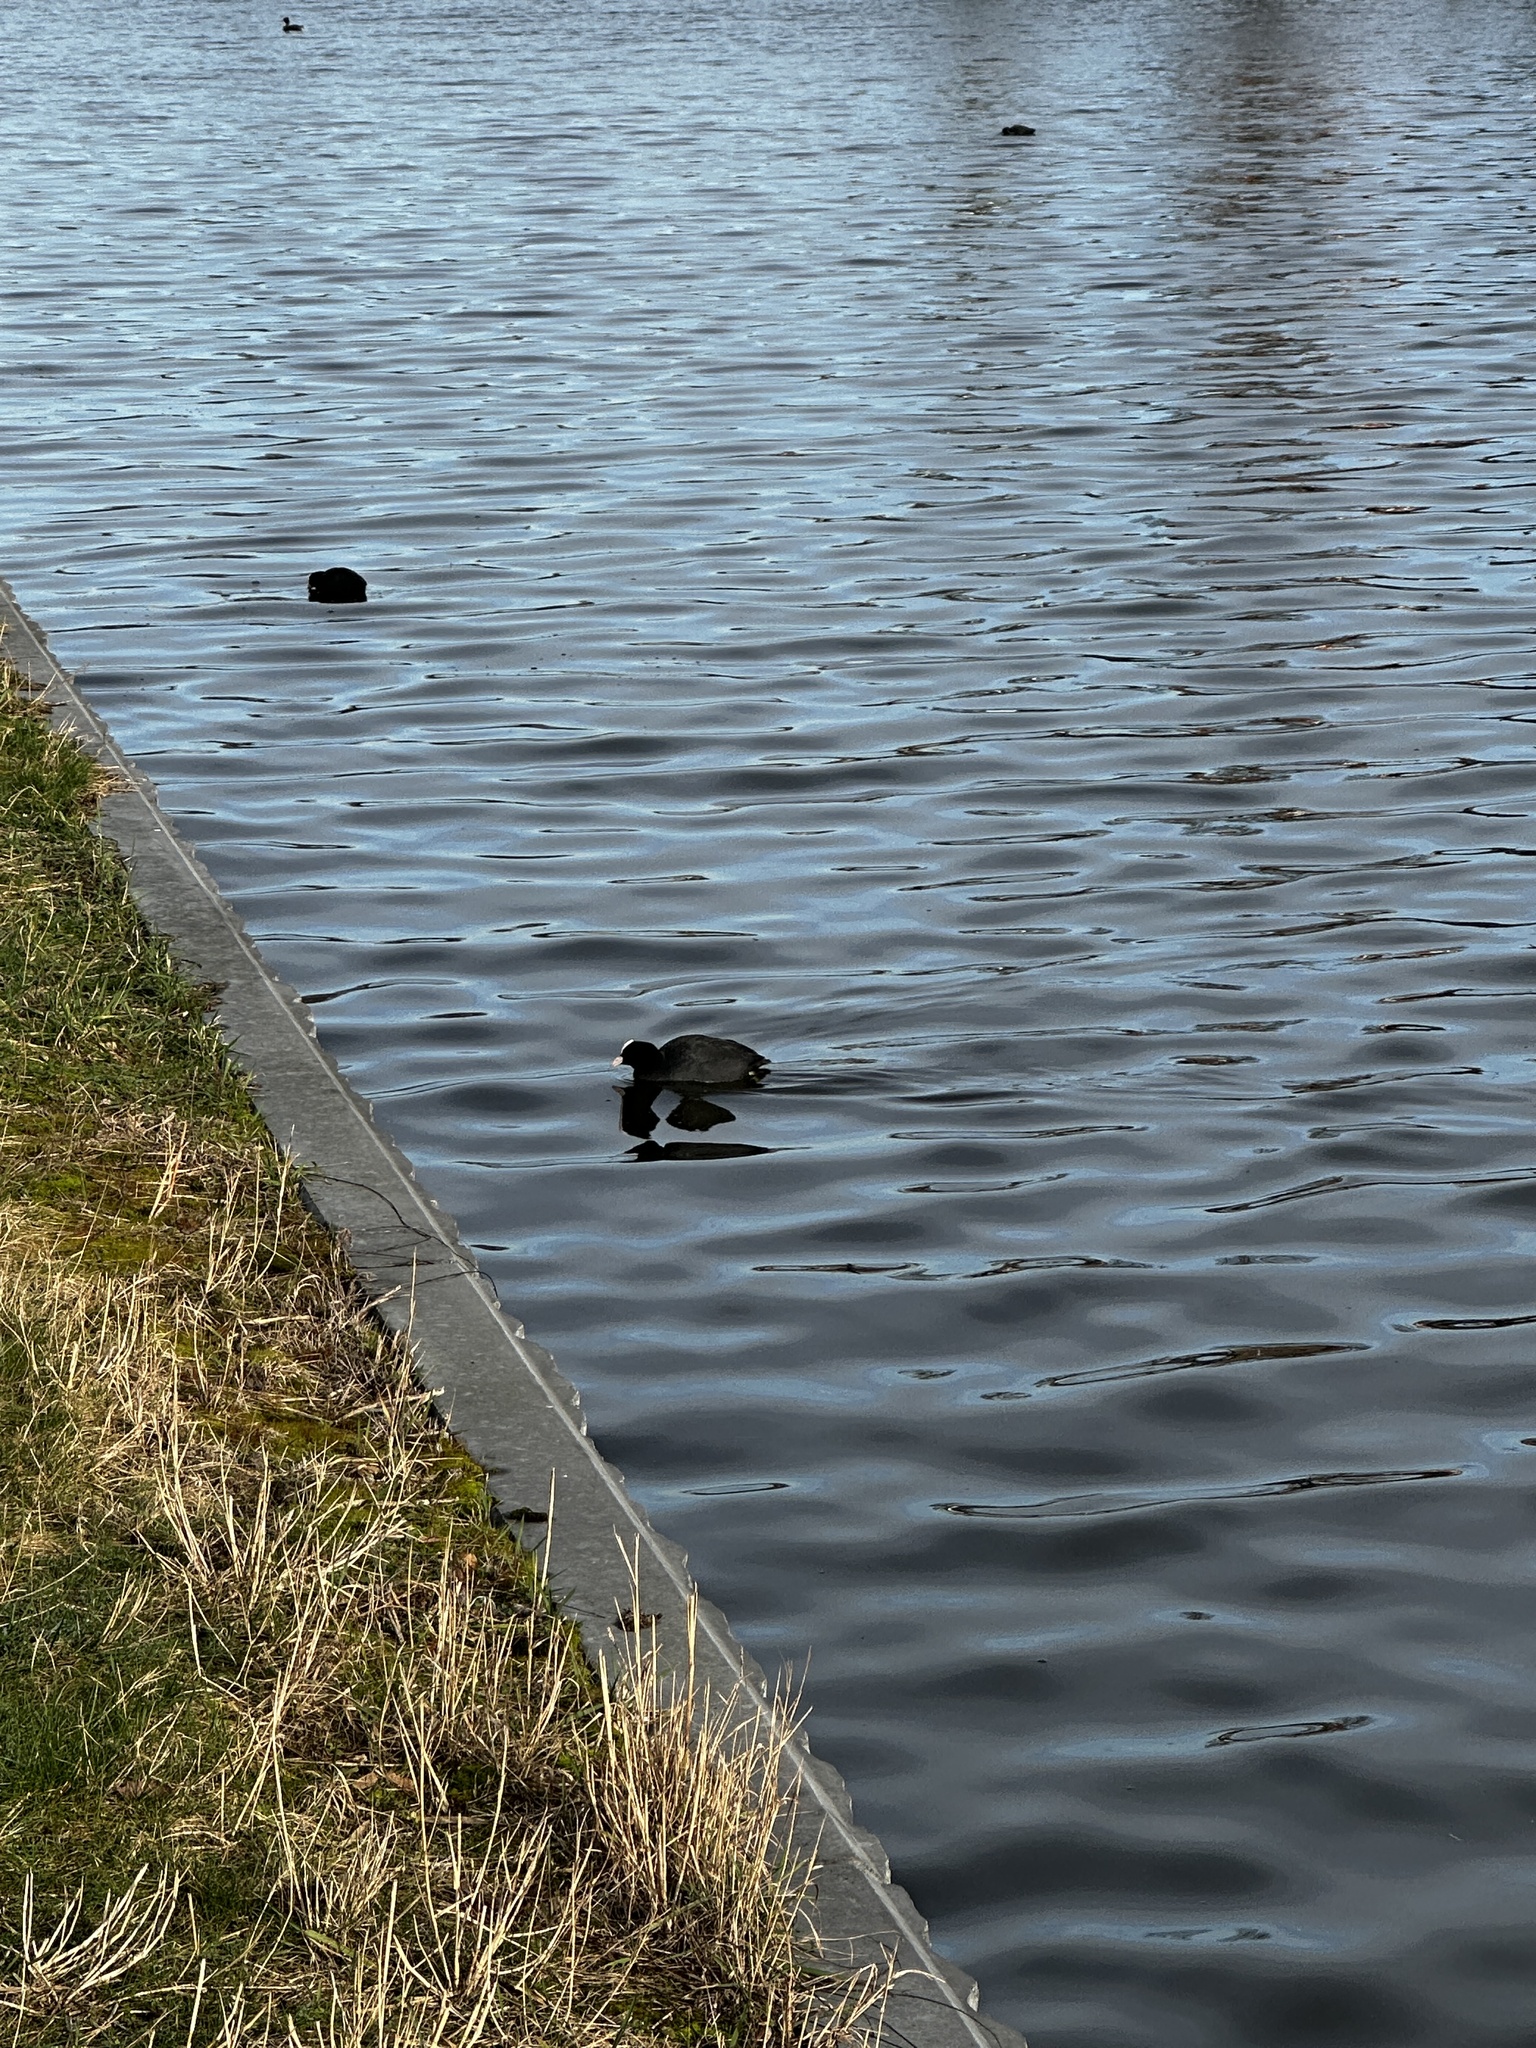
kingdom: Animalia
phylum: Chordata
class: Aves
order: Gruiformes
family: Rallidae
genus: Fulica
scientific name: Fulica atra
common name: Eurasian coot
